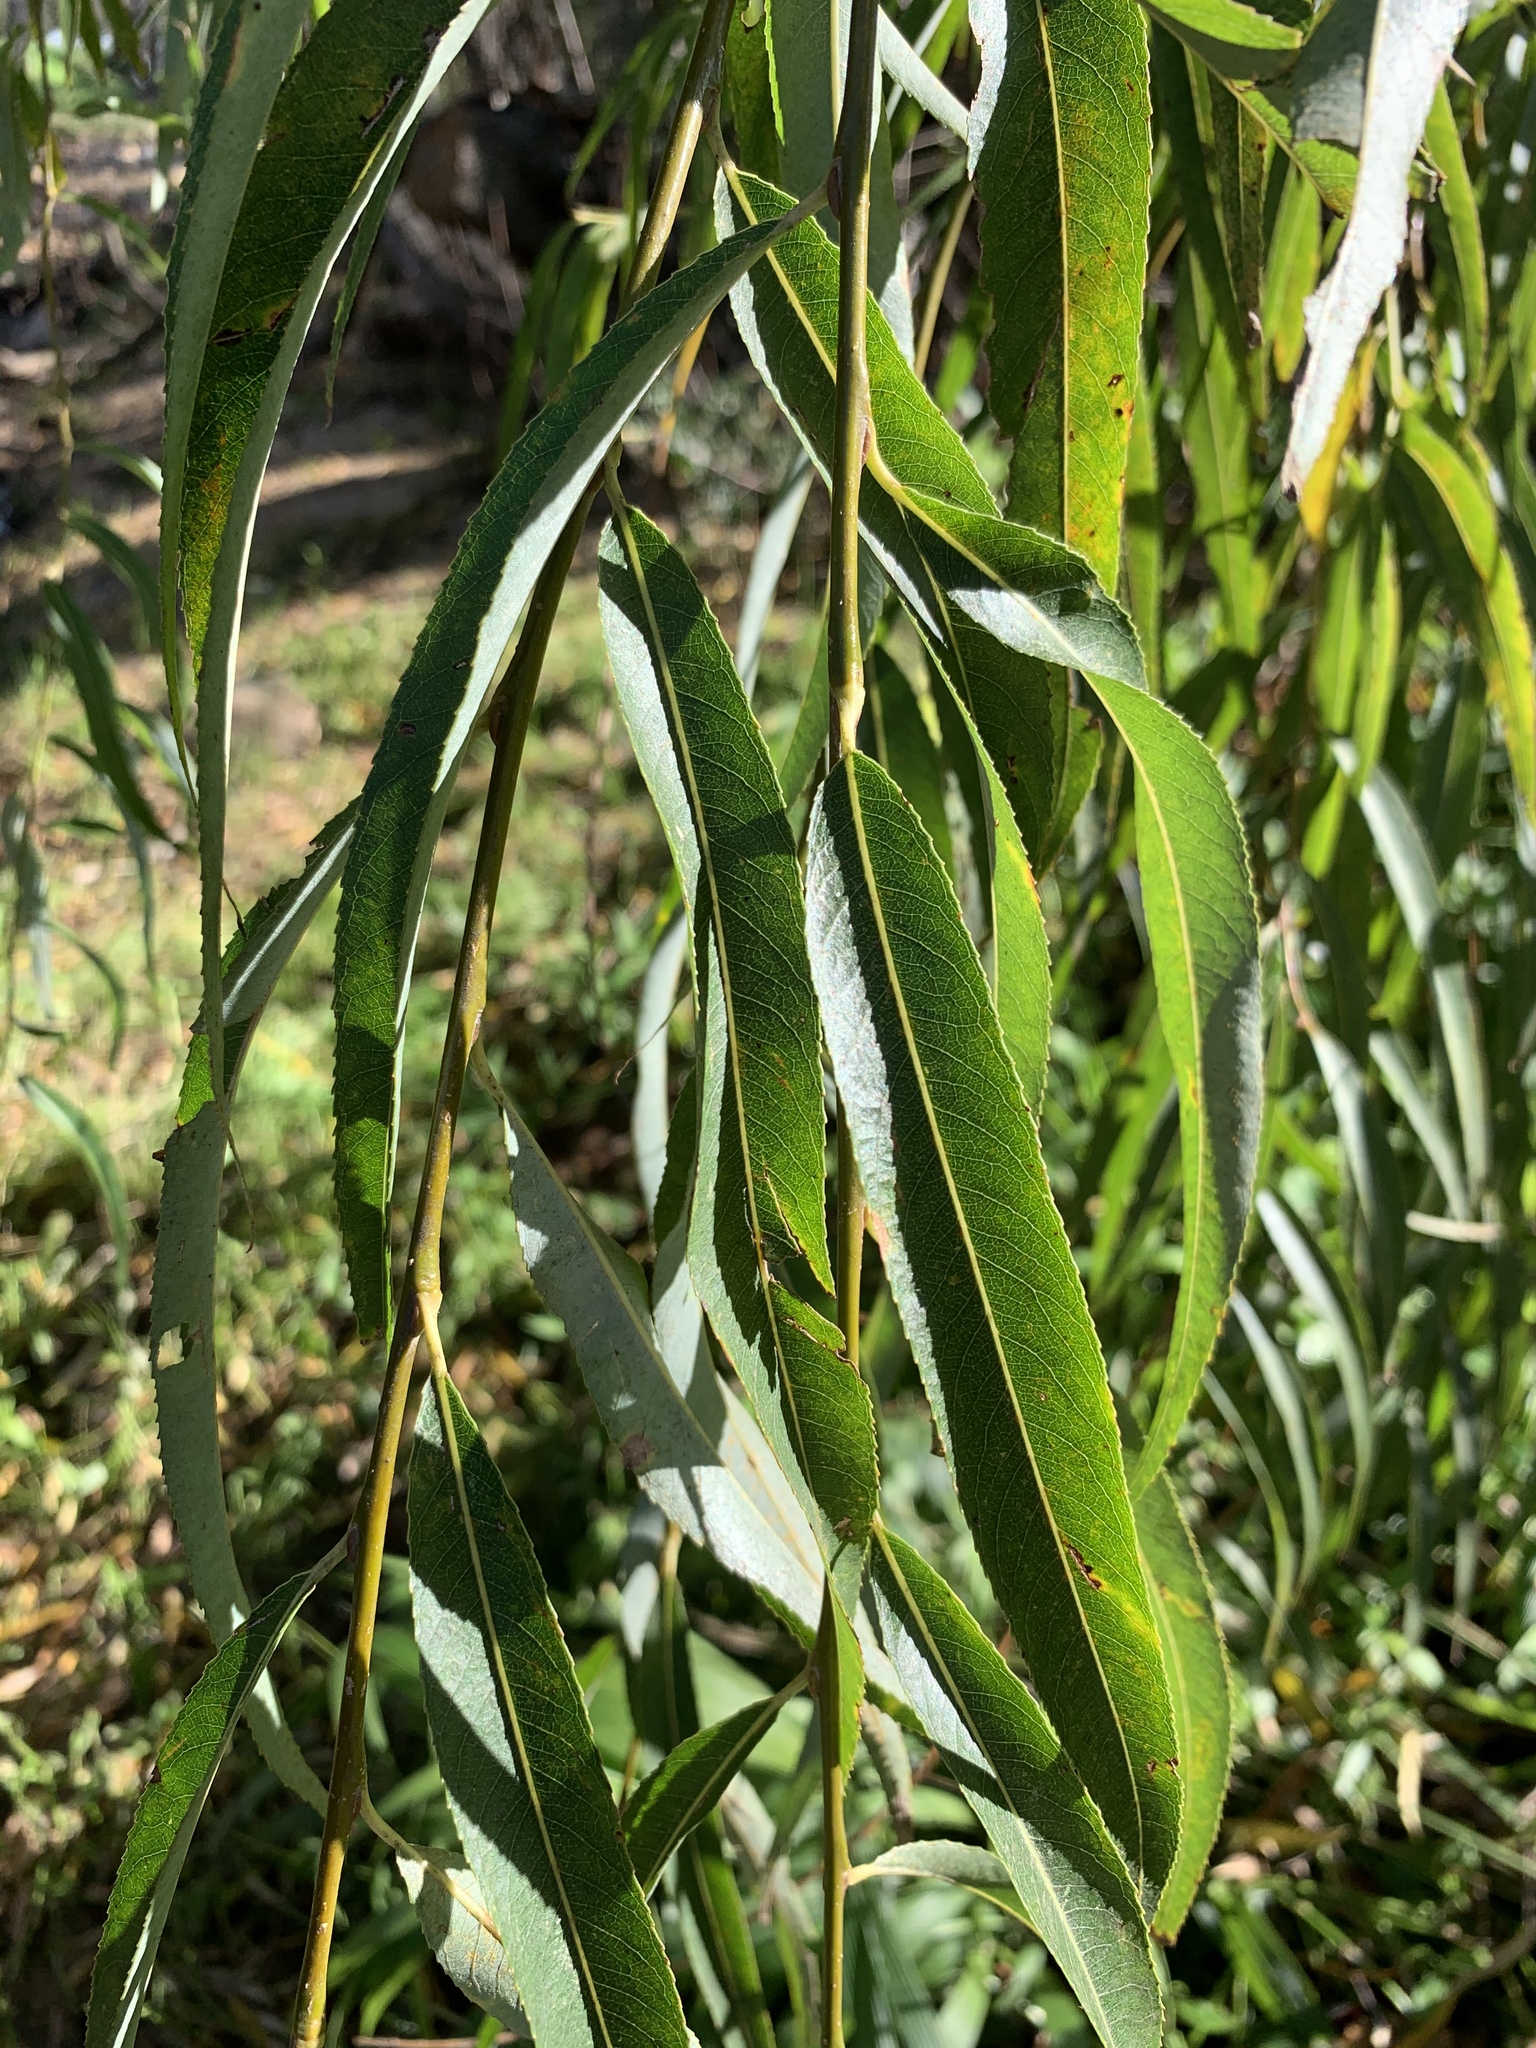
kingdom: Plantae
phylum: Tracheophyta
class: Magnoliopsida
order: Malpighiales
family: Salicaceae
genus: Salix
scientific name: Salix babylonica
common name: Weeping willow
